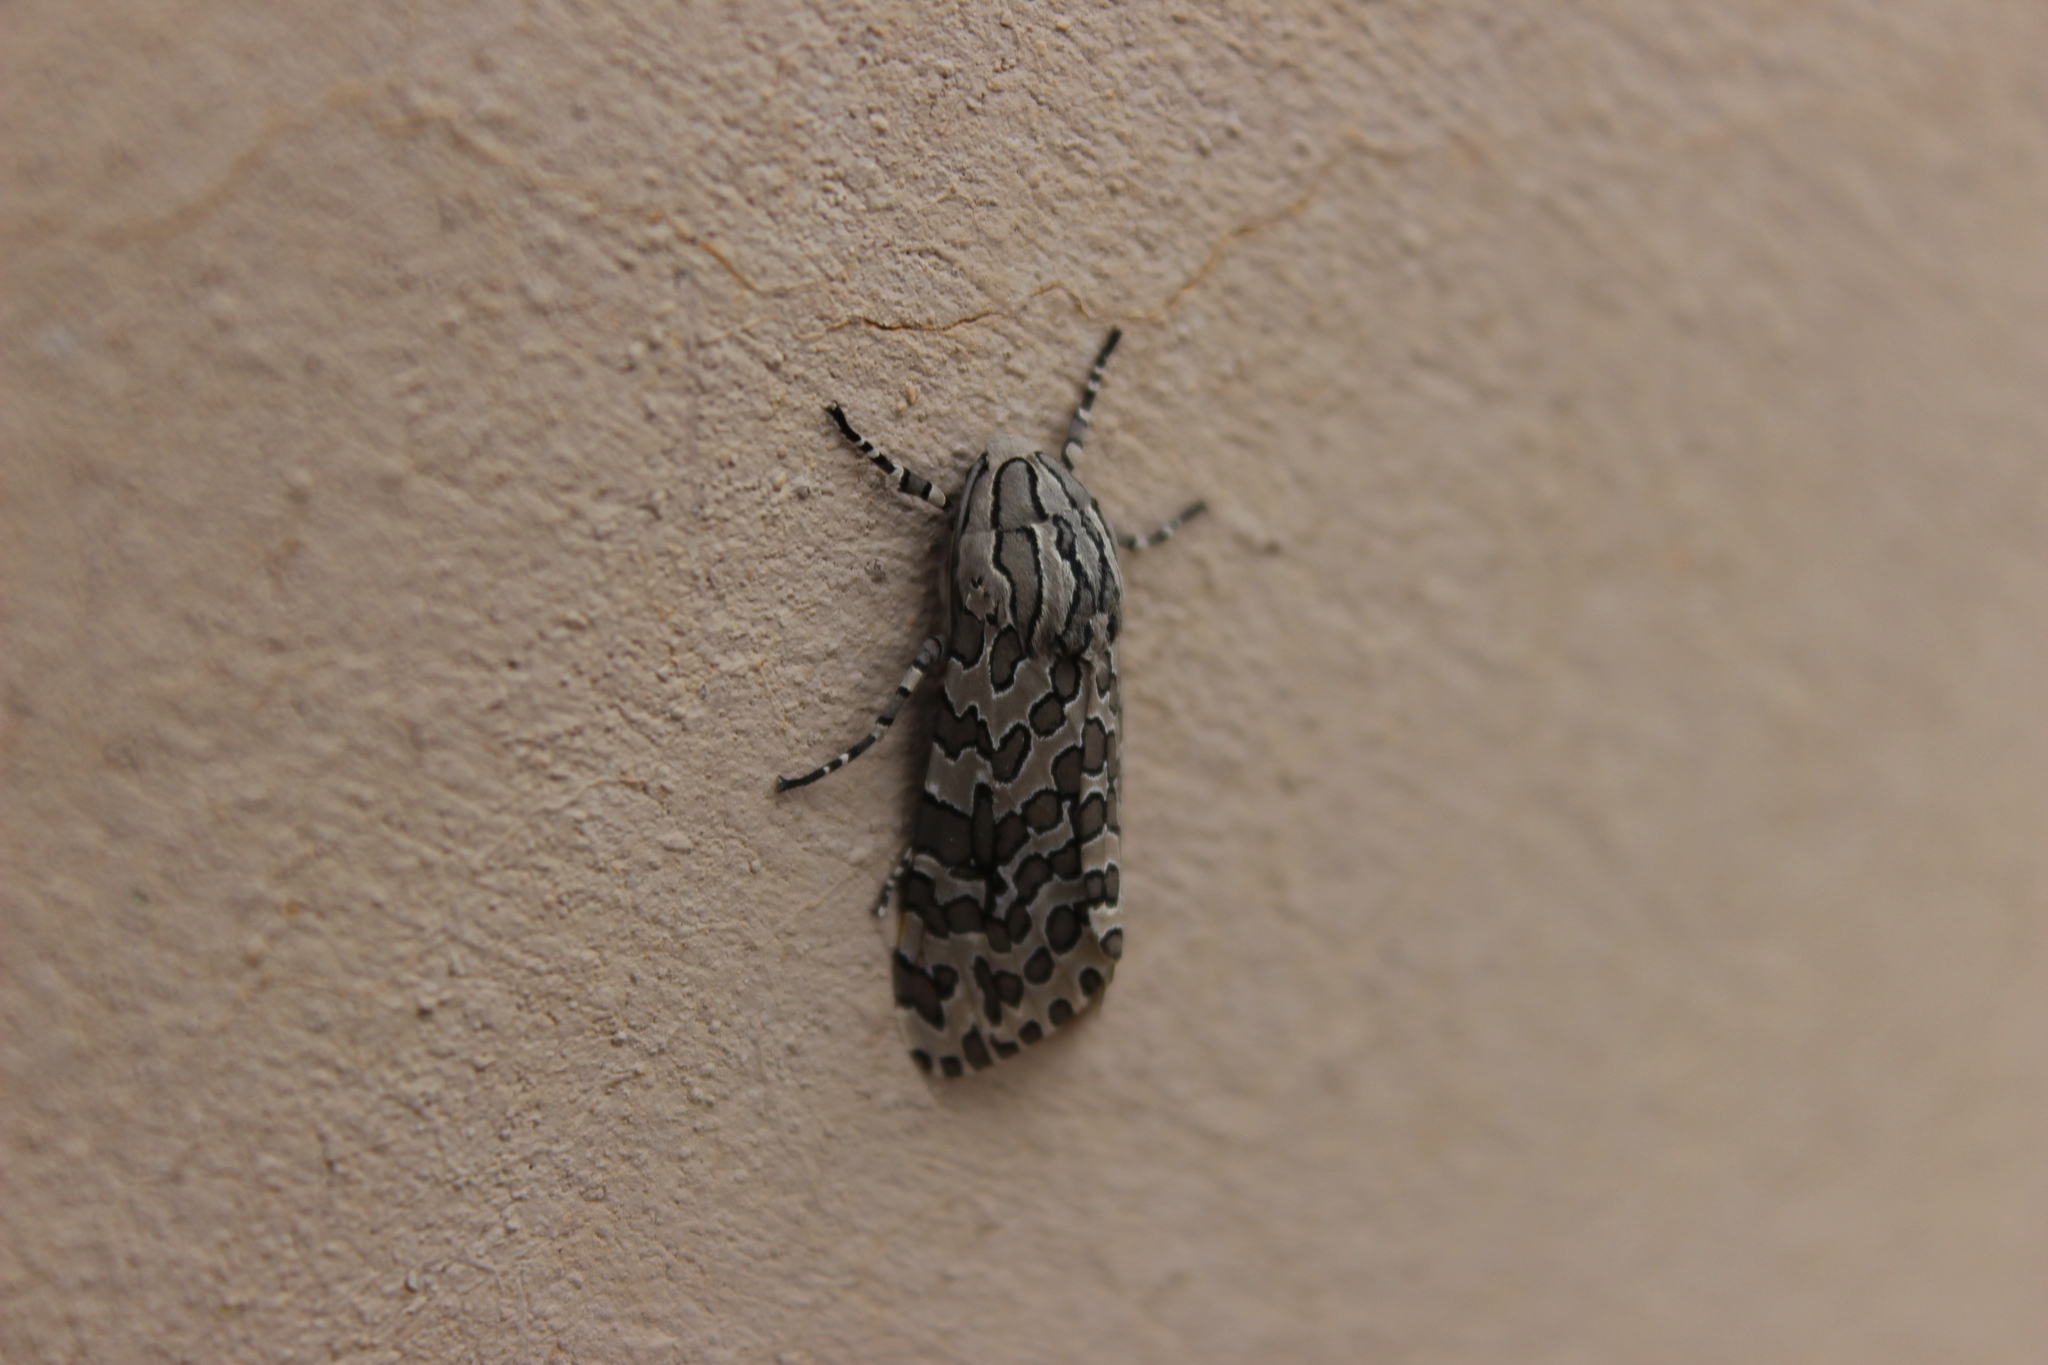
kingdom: Animalia
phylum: Arthropoda
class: Insecta
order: Lepidoptera
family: Erebidae
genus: Hypercompe
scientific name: Hypercompe indecisa
